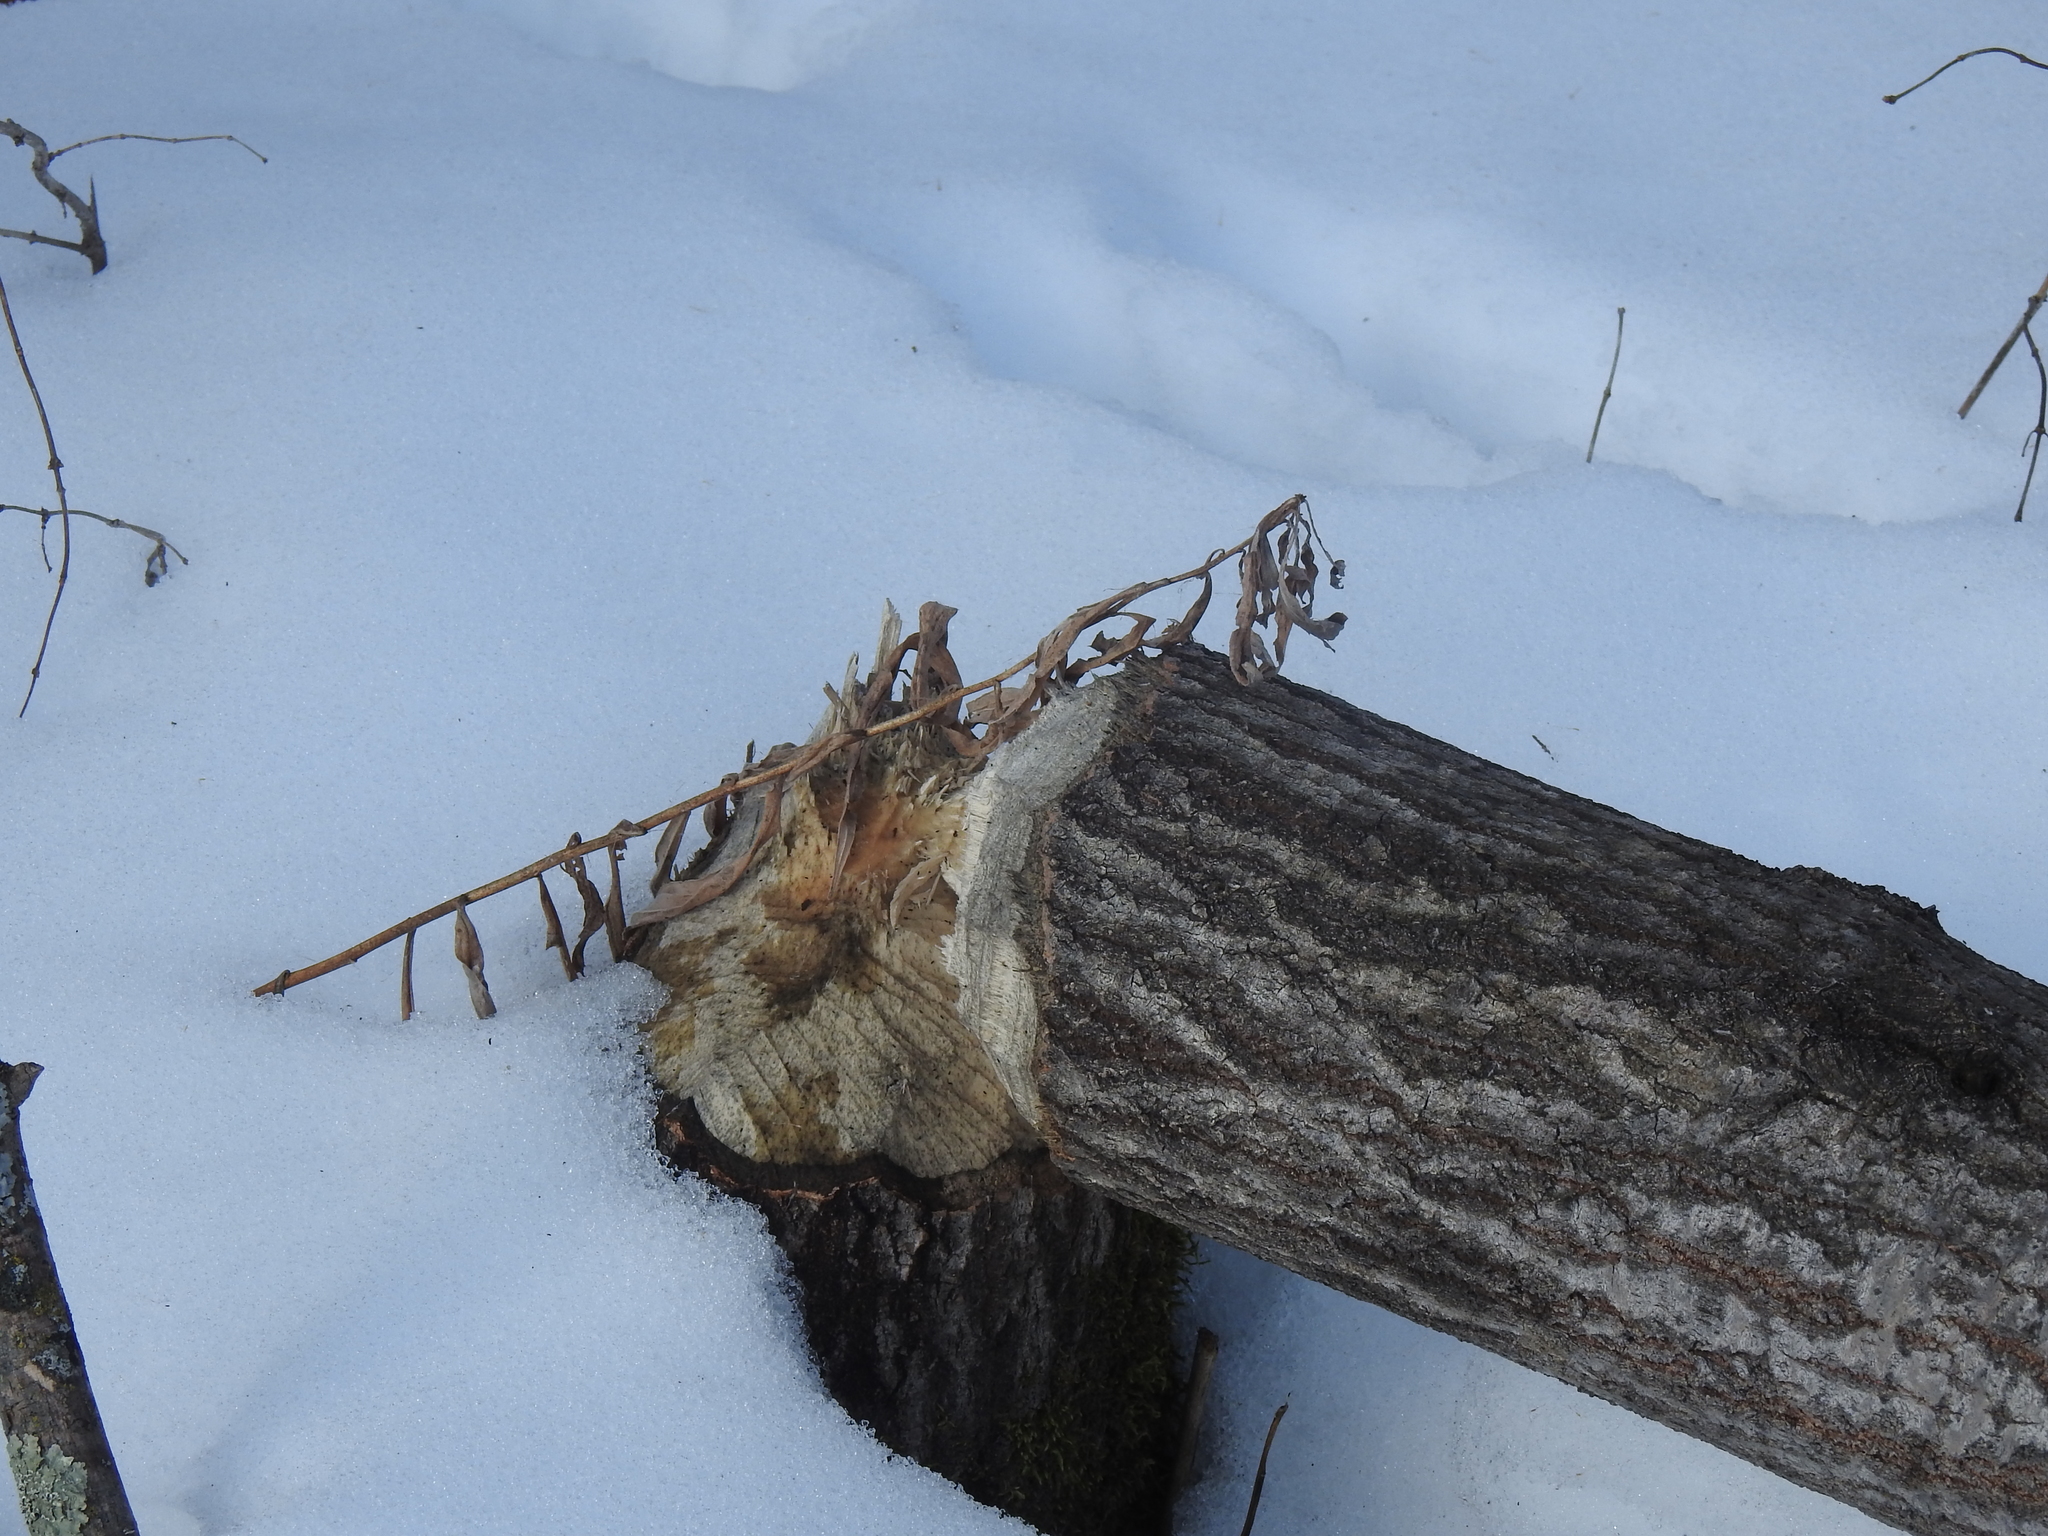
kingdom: Animalia
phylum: Chordata
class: Mammalia
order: Rodentia
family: Castoridae
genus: Castor
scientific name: Castor canadensis
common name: American beaver
